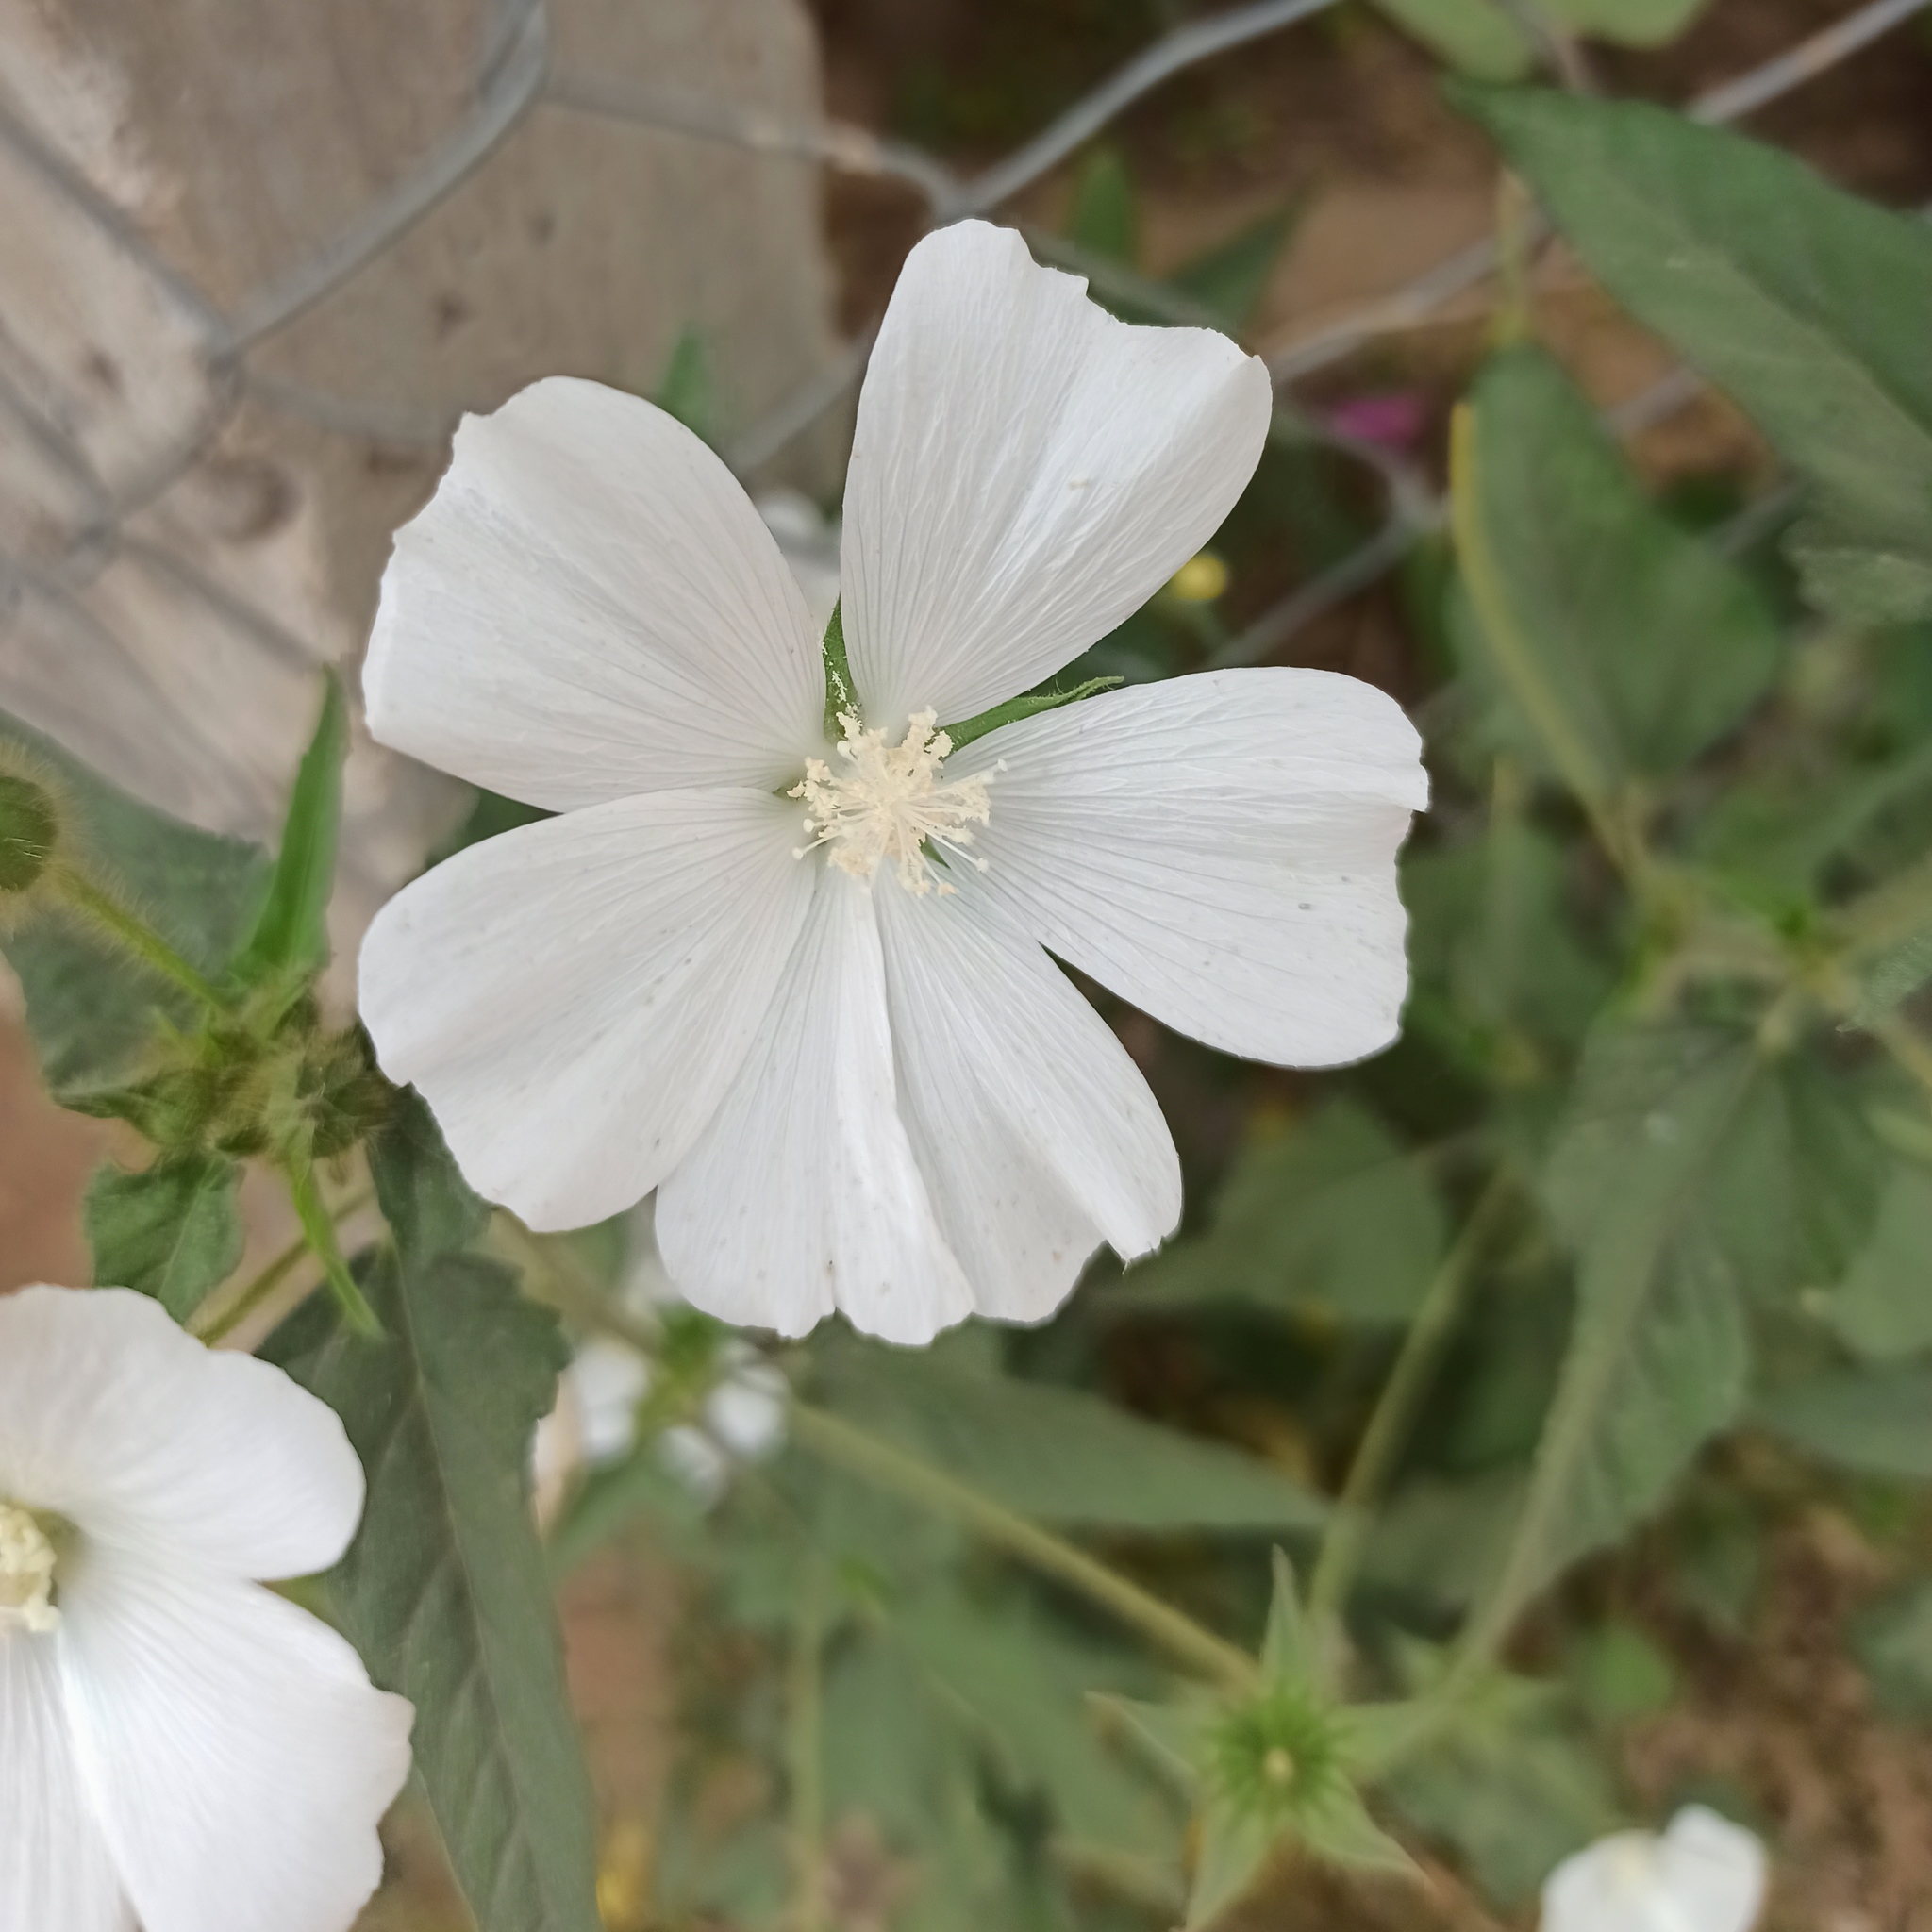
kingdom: Plantae
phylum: Tracheophyta
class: Magnoliopsida
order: Malvales
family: Malvaceae
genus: Anoda
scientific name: Anoda albiflora
